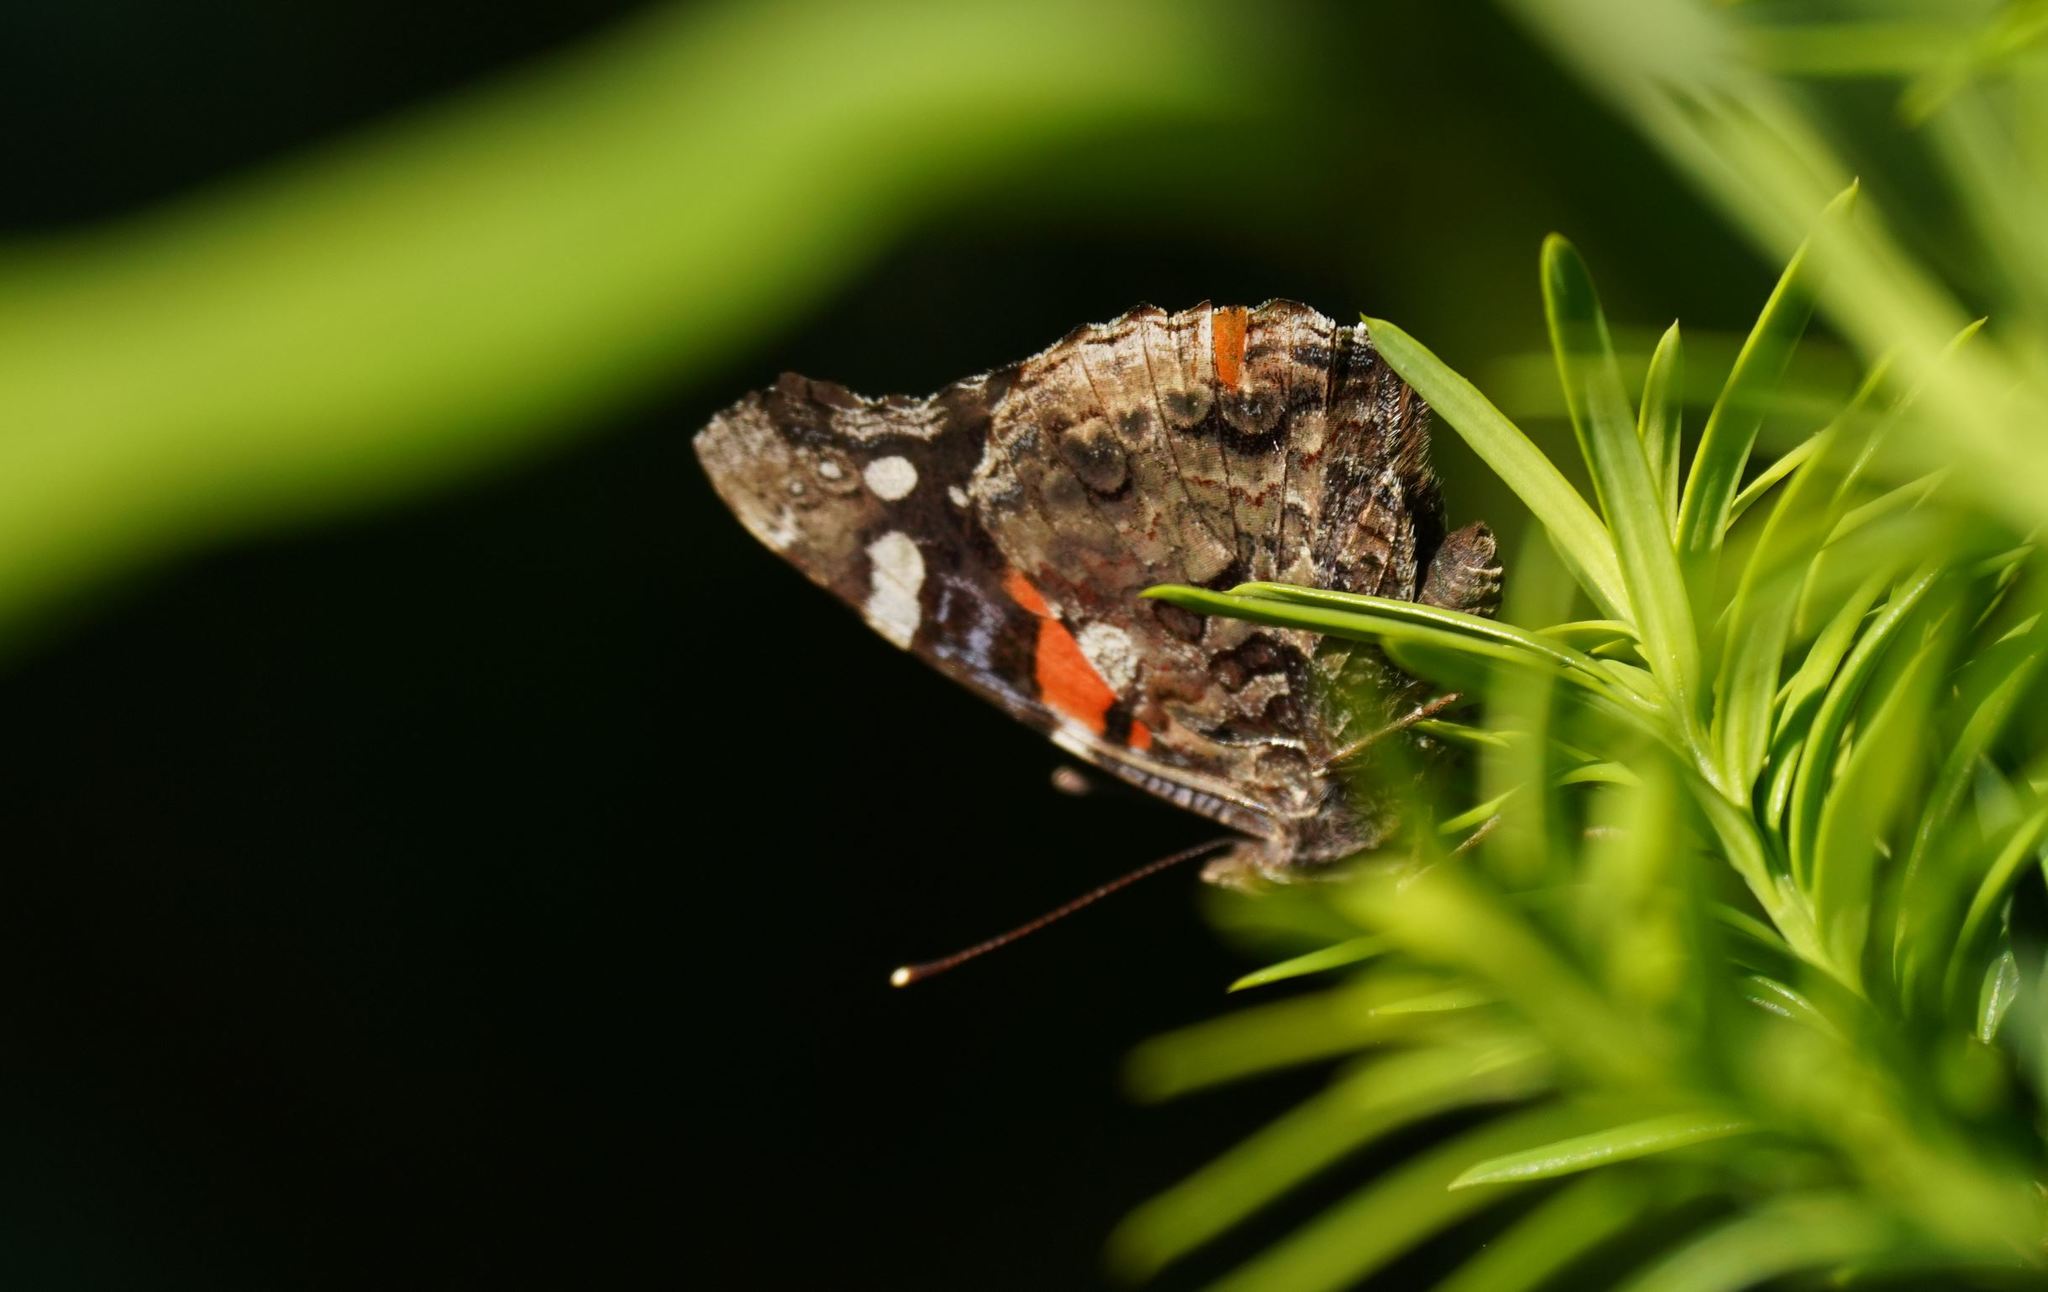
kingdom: Animalia
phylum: Arthropoda
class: Insecta
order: Lepidoptera
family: Nymphalidae
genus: Vanessa
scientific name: Vanessa atalanta
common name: Red admiral
